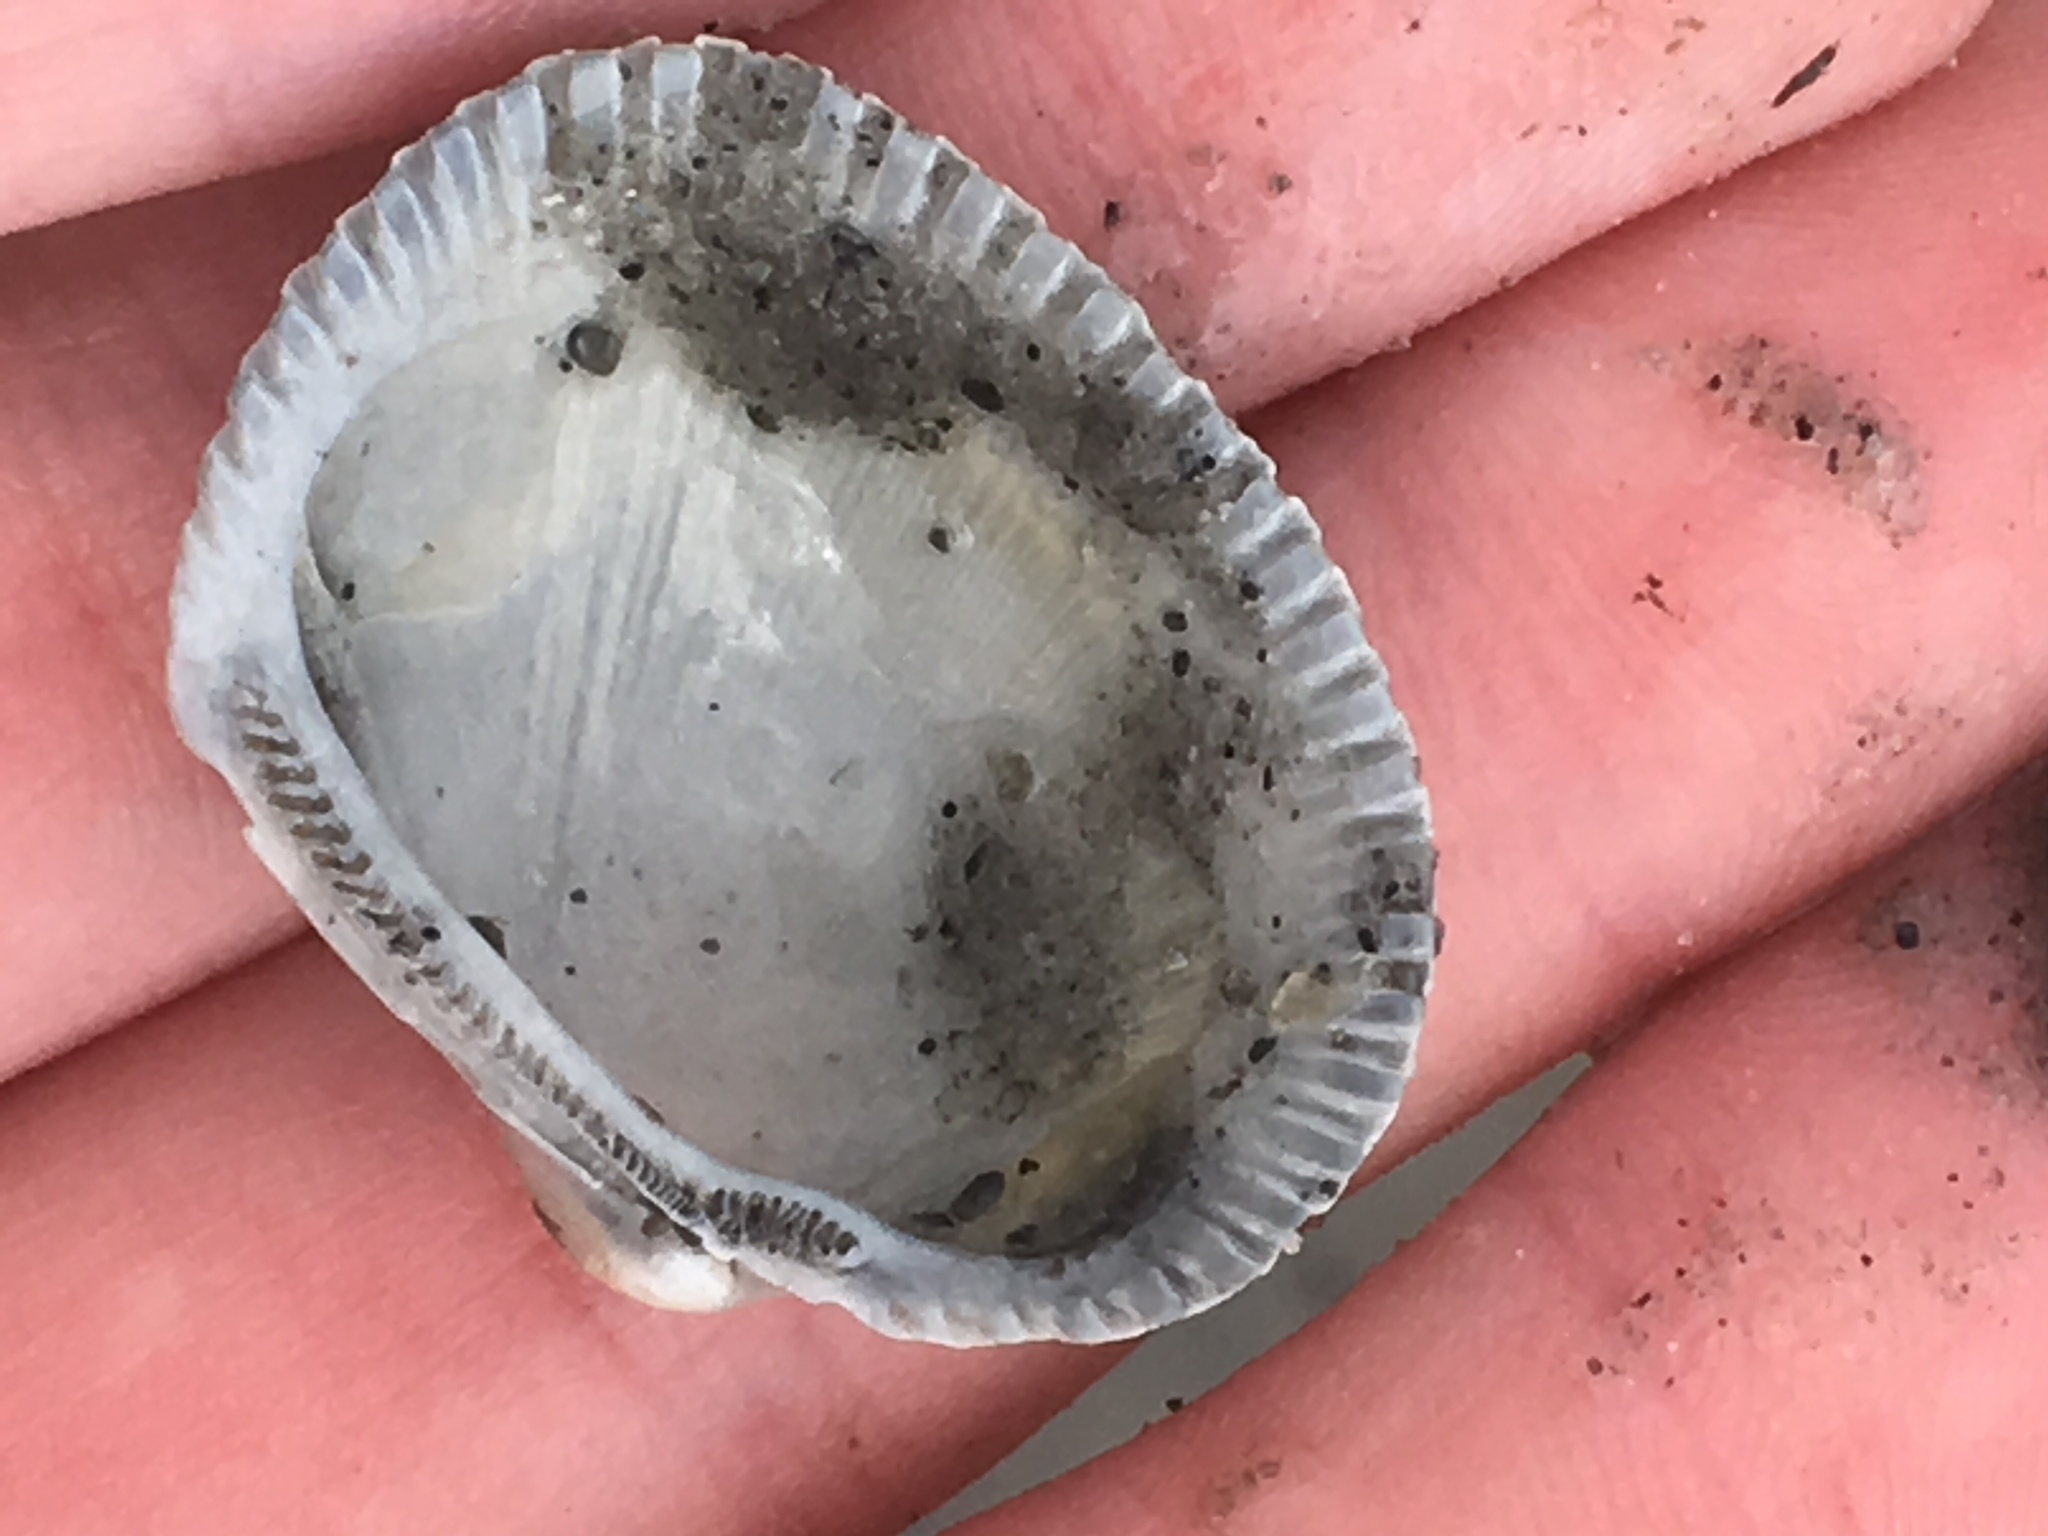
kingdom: Animalia
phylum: Mollusca
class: Bivalvia
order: Arcida
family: Arcidae
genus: Lunarca
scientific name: Lunarca ovalis
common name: Blood ark
